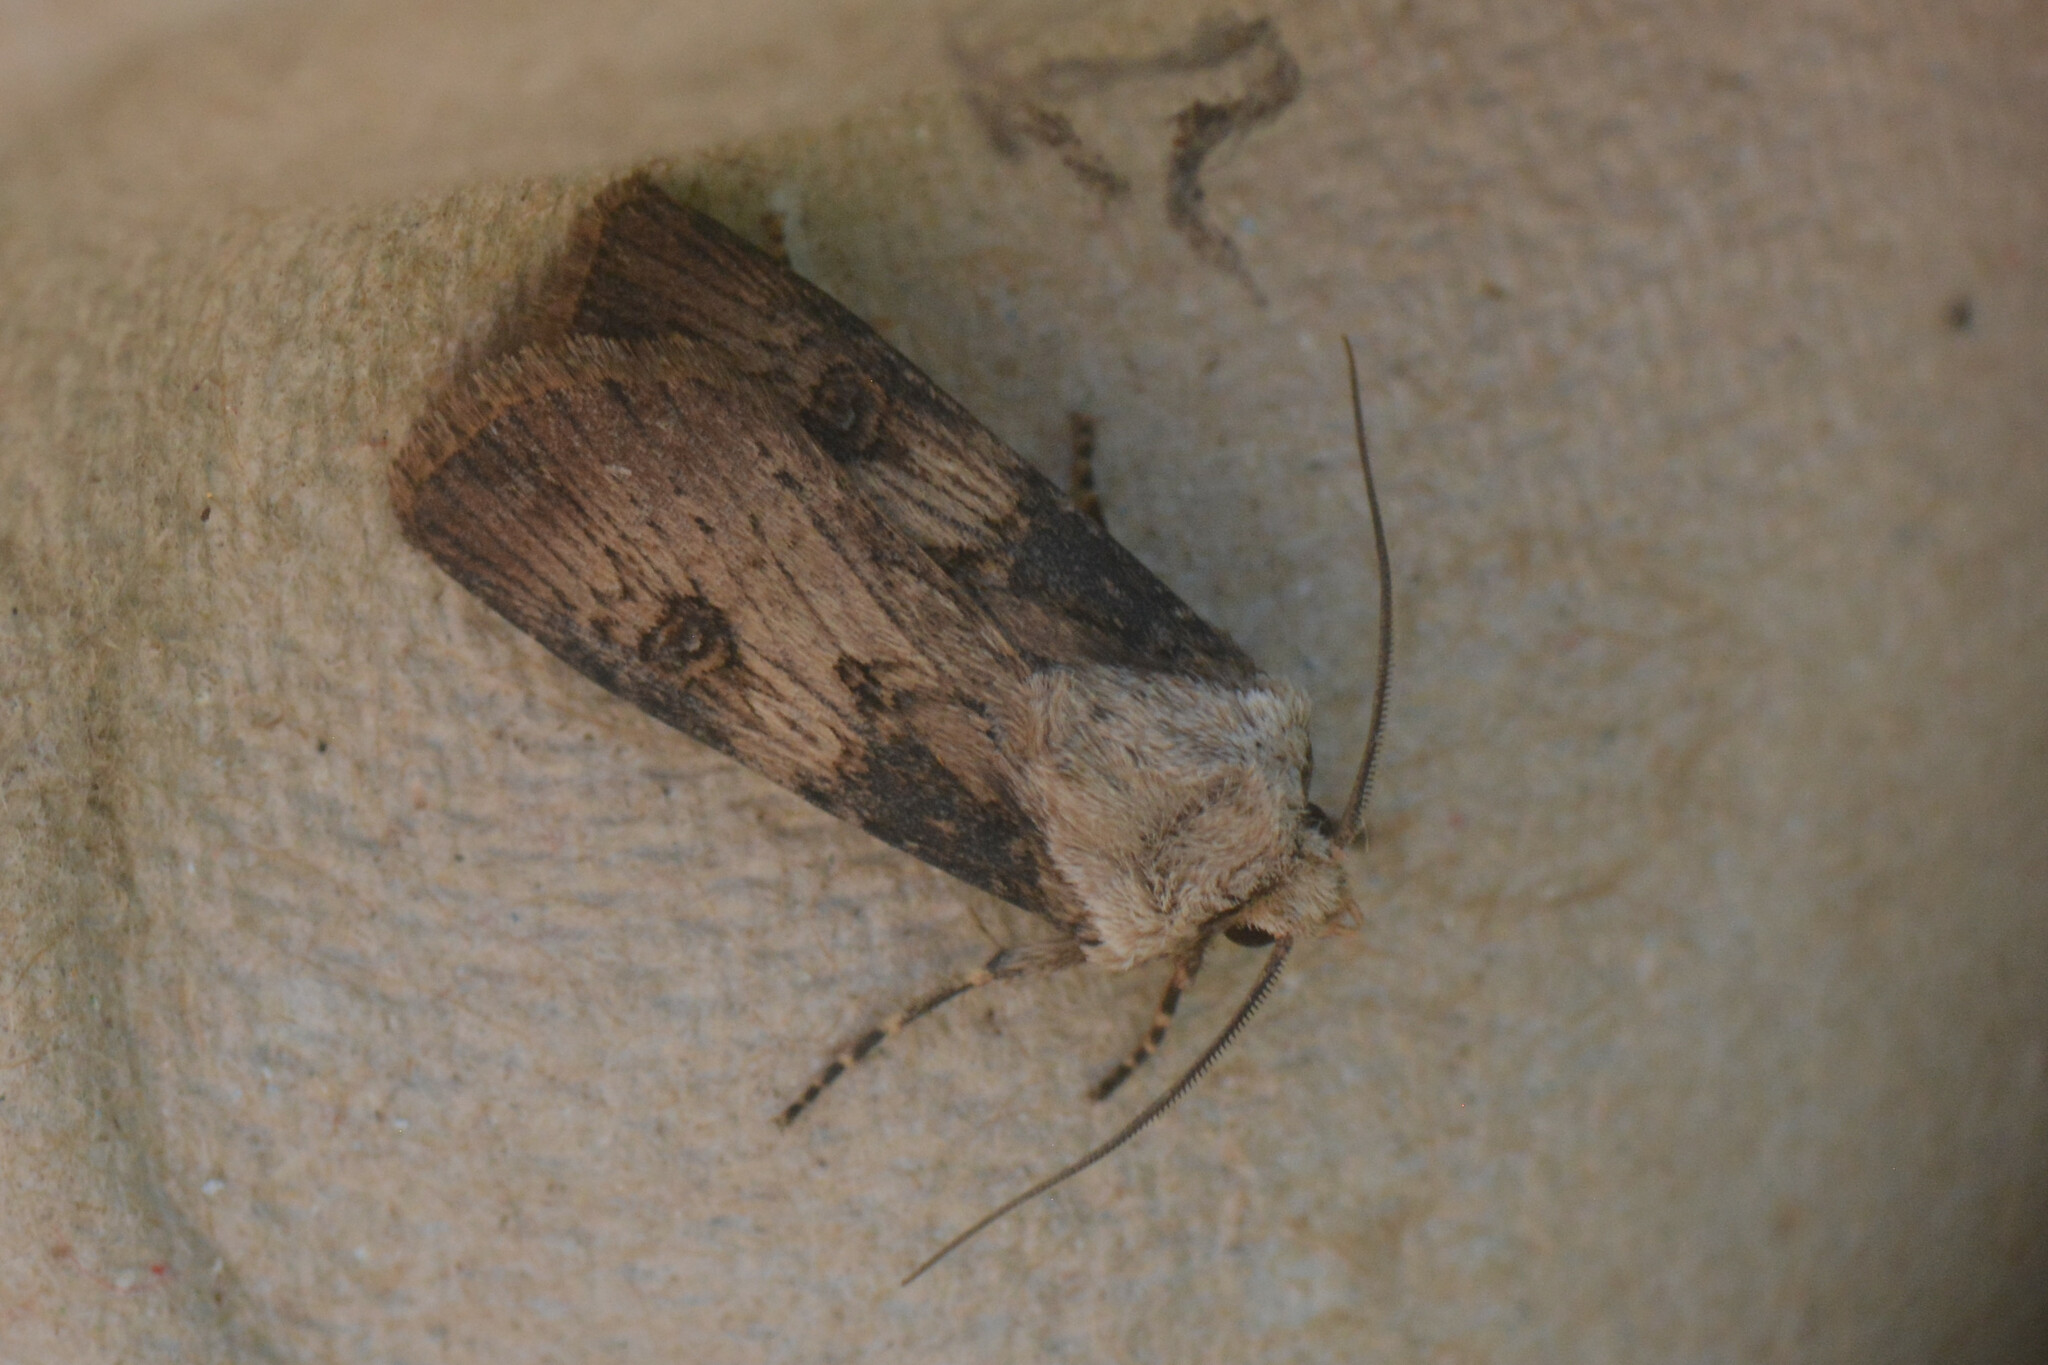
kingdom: Animalia
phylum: Arthropoda
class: Insecta
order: Lepidoptera
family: Noctuidae
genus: Agrotis
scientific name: Agrotis puta
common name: Shuttle-shaped dart
